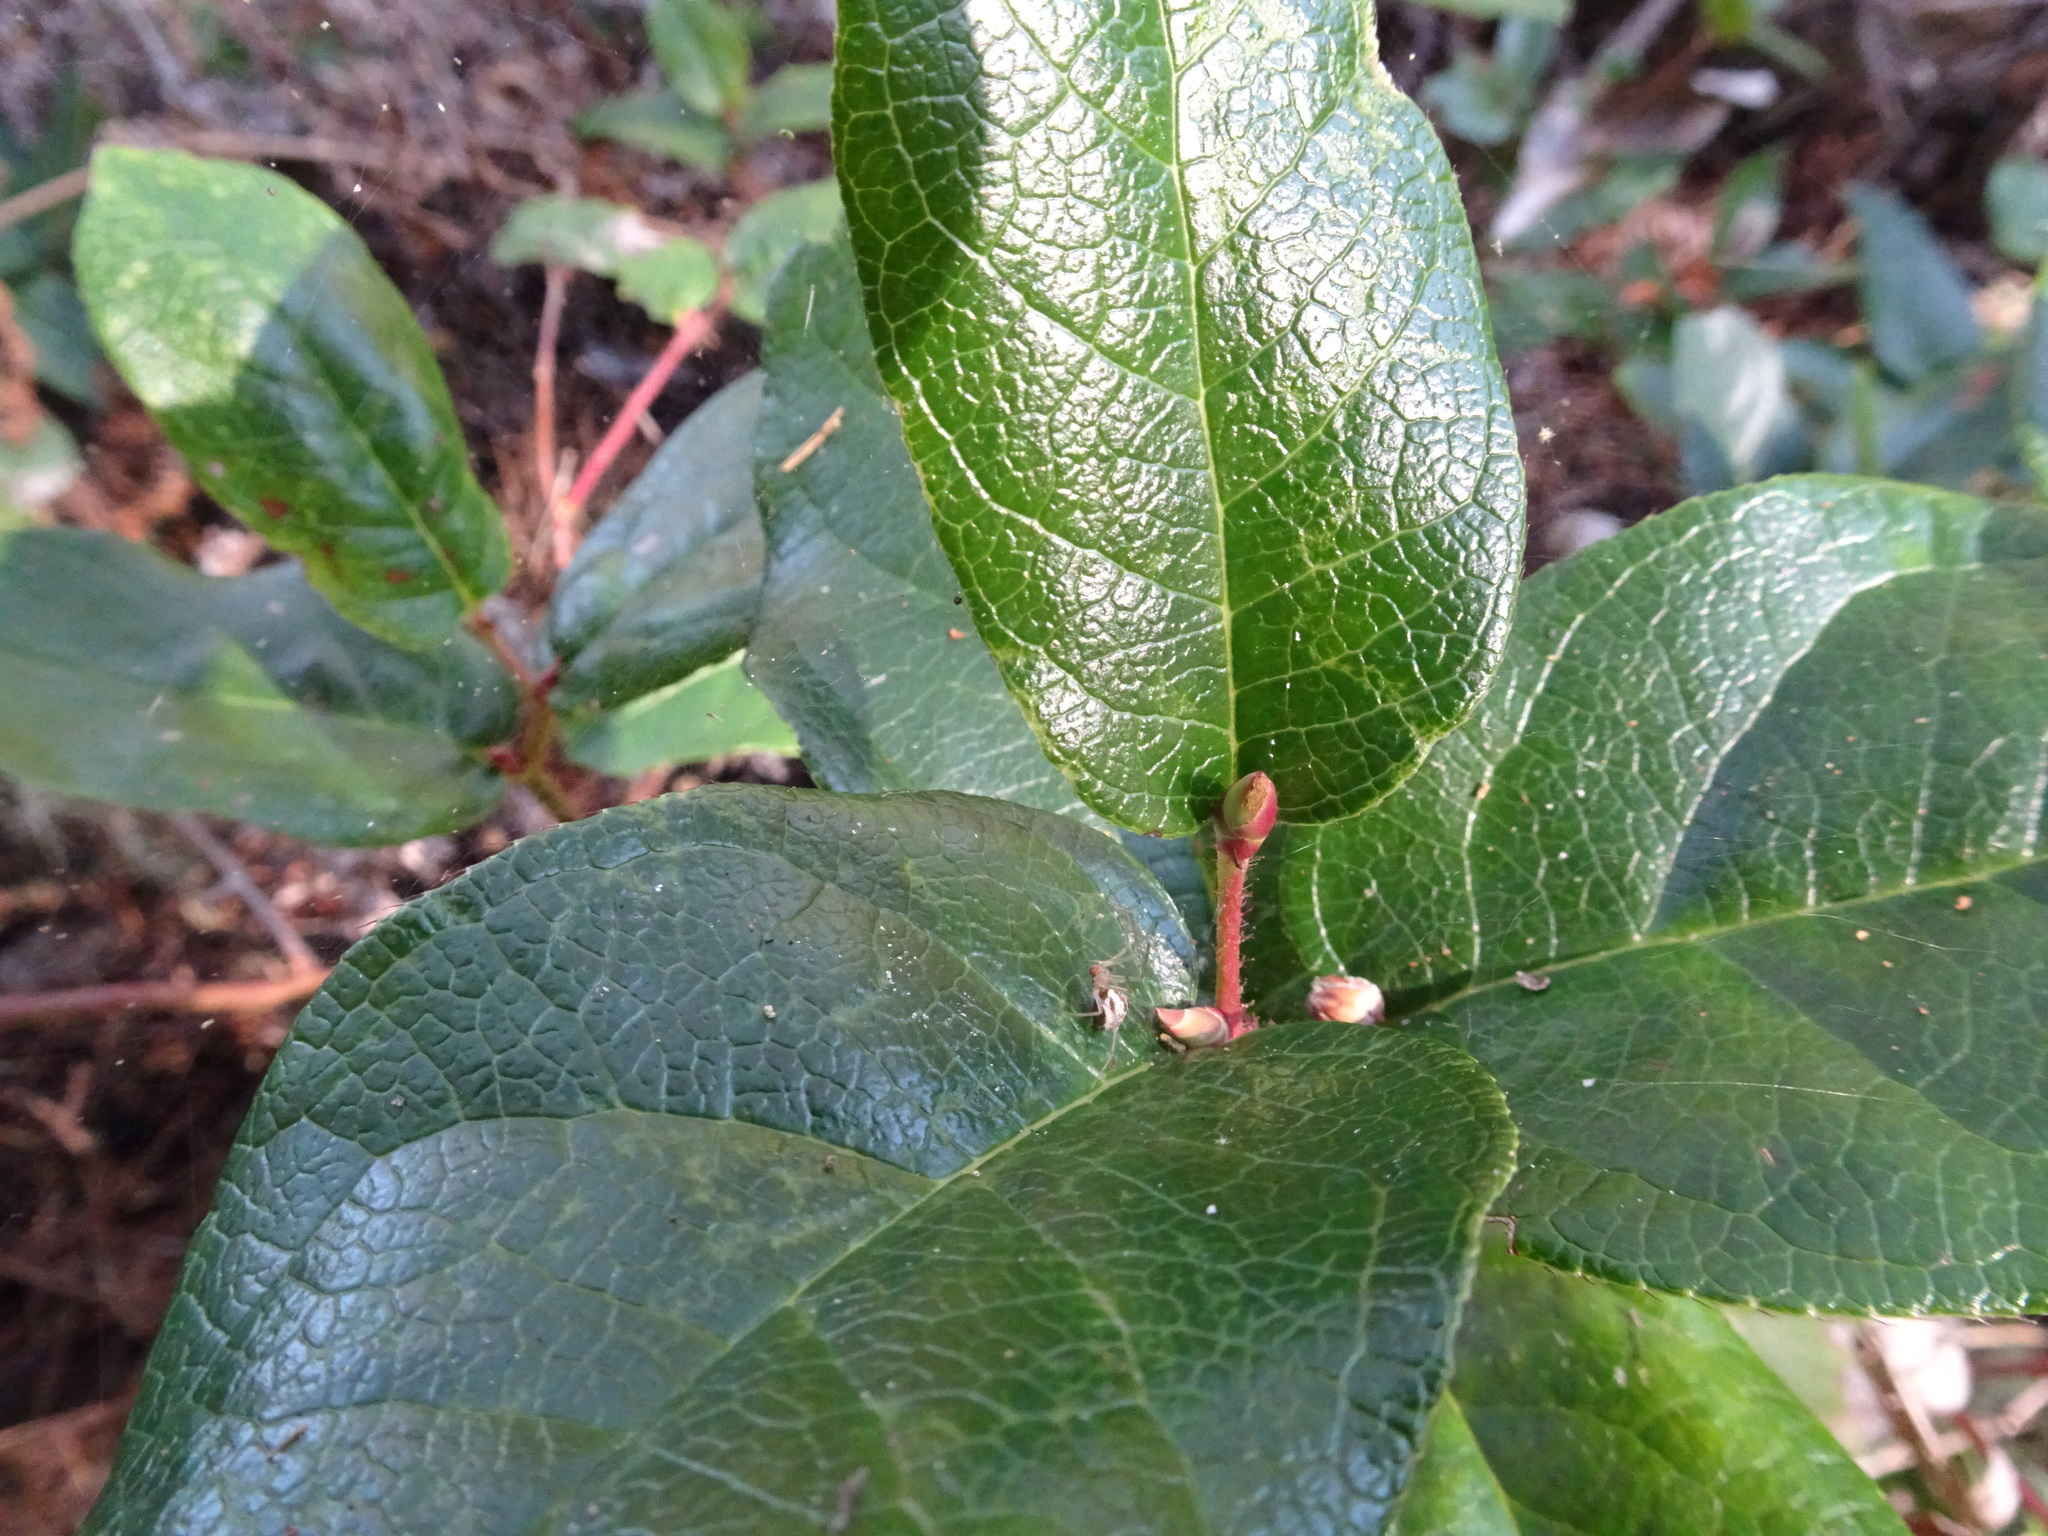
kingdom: Plantae
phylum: Tracheophyta
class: Magnoliopsida
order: Ericales
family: Ericaceae
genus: Gaultheria
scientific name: Gaultheria shallon
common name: Shallon
